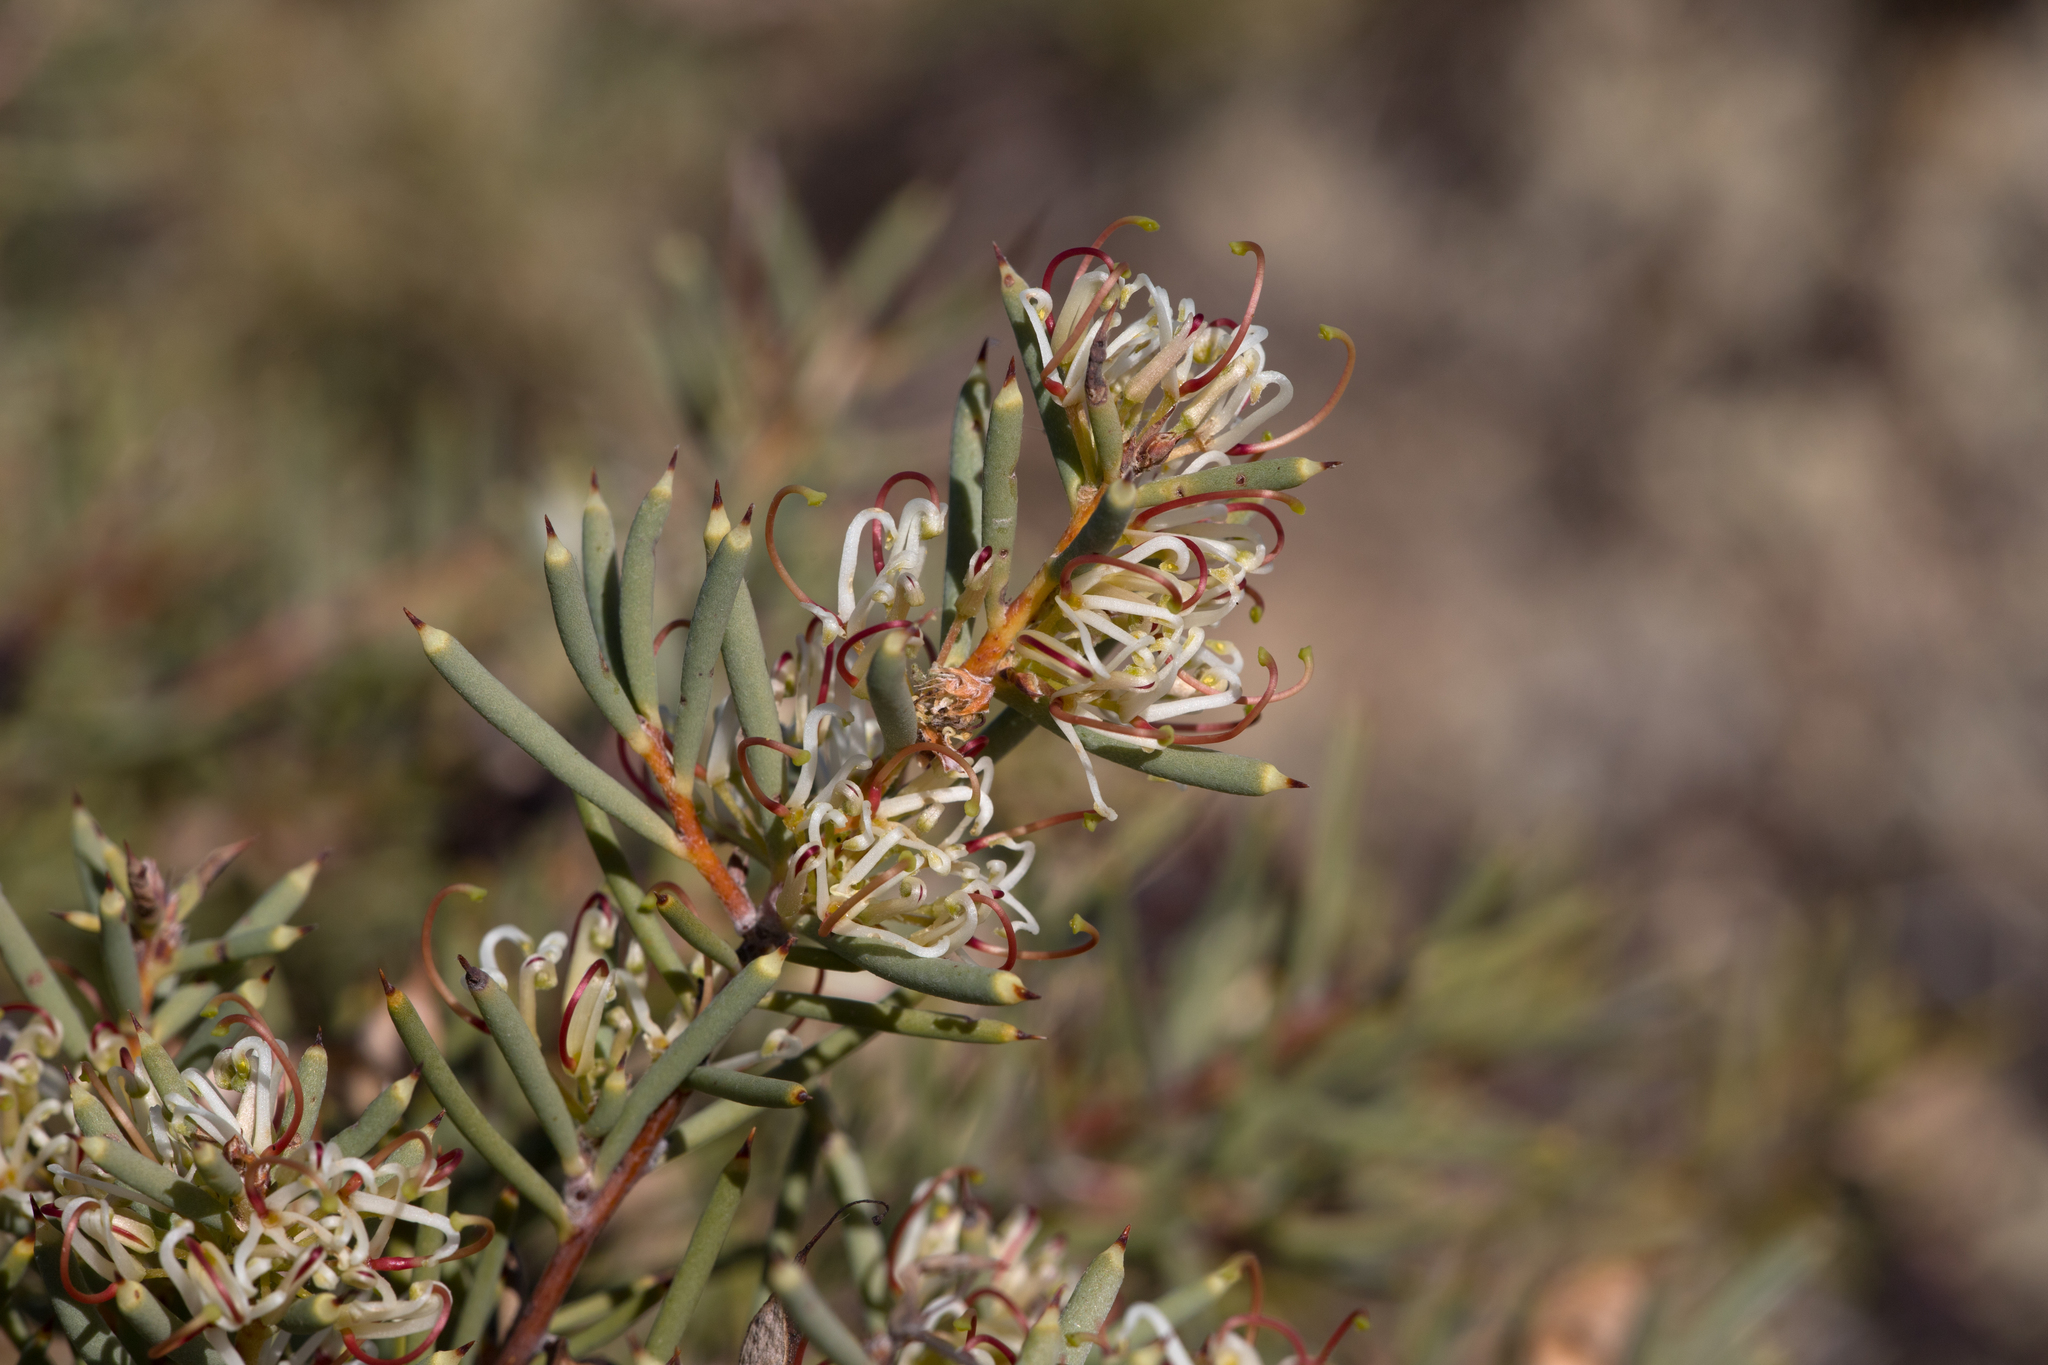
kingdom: Plantae
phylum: Tracheophyta
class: Magnoliopsida
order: Proteales
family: Proteaceae
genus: Hakea
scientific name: Hakea collina
